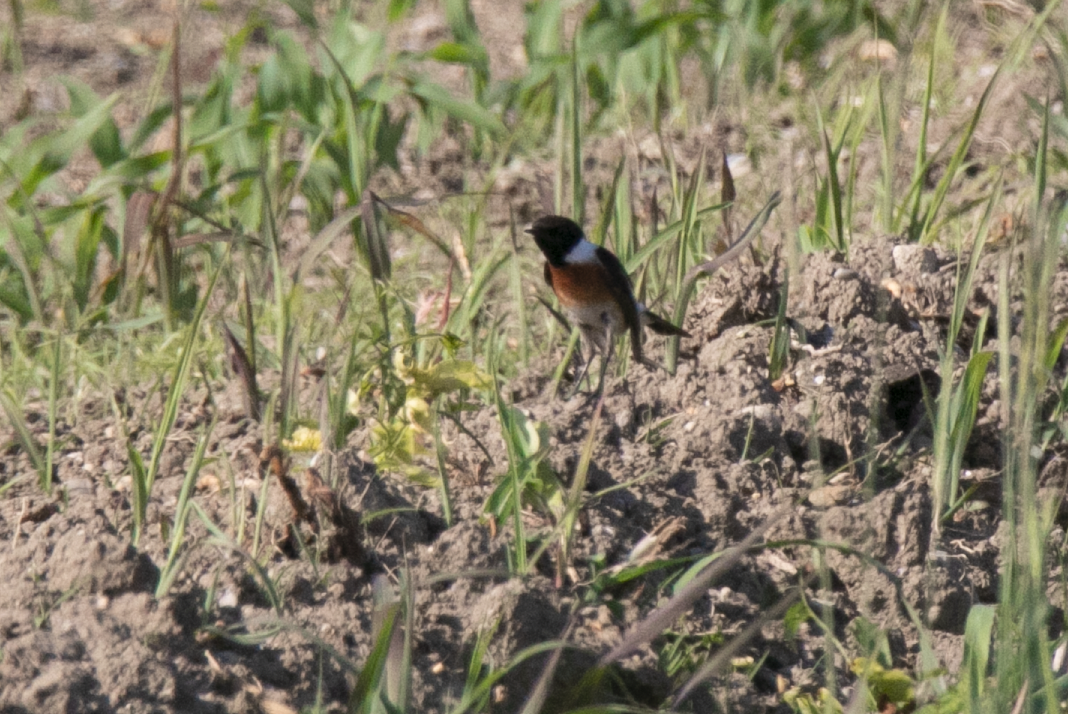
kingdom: Animalia
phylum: Chordata
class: Aves
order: Passeriformes
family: Muscicapidae
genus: Saxicola
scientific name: Saxicola rubicola
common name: European stonechat
